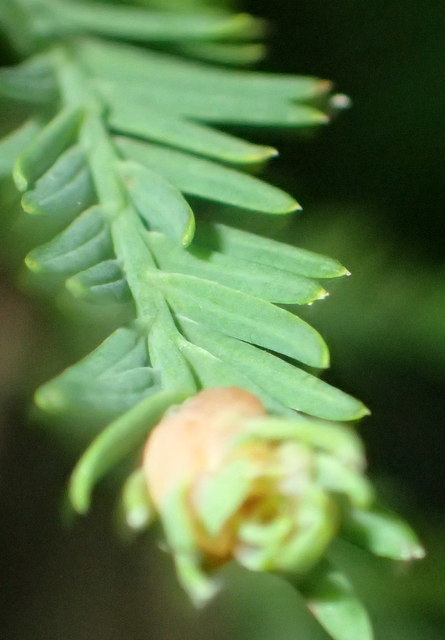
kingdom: Animalia
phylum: Arthropoda
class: Insecta
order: Diptera
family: Cecidomyiidae
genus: Taxodiomyia
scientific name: Taxodiomyia cupressiananassa
